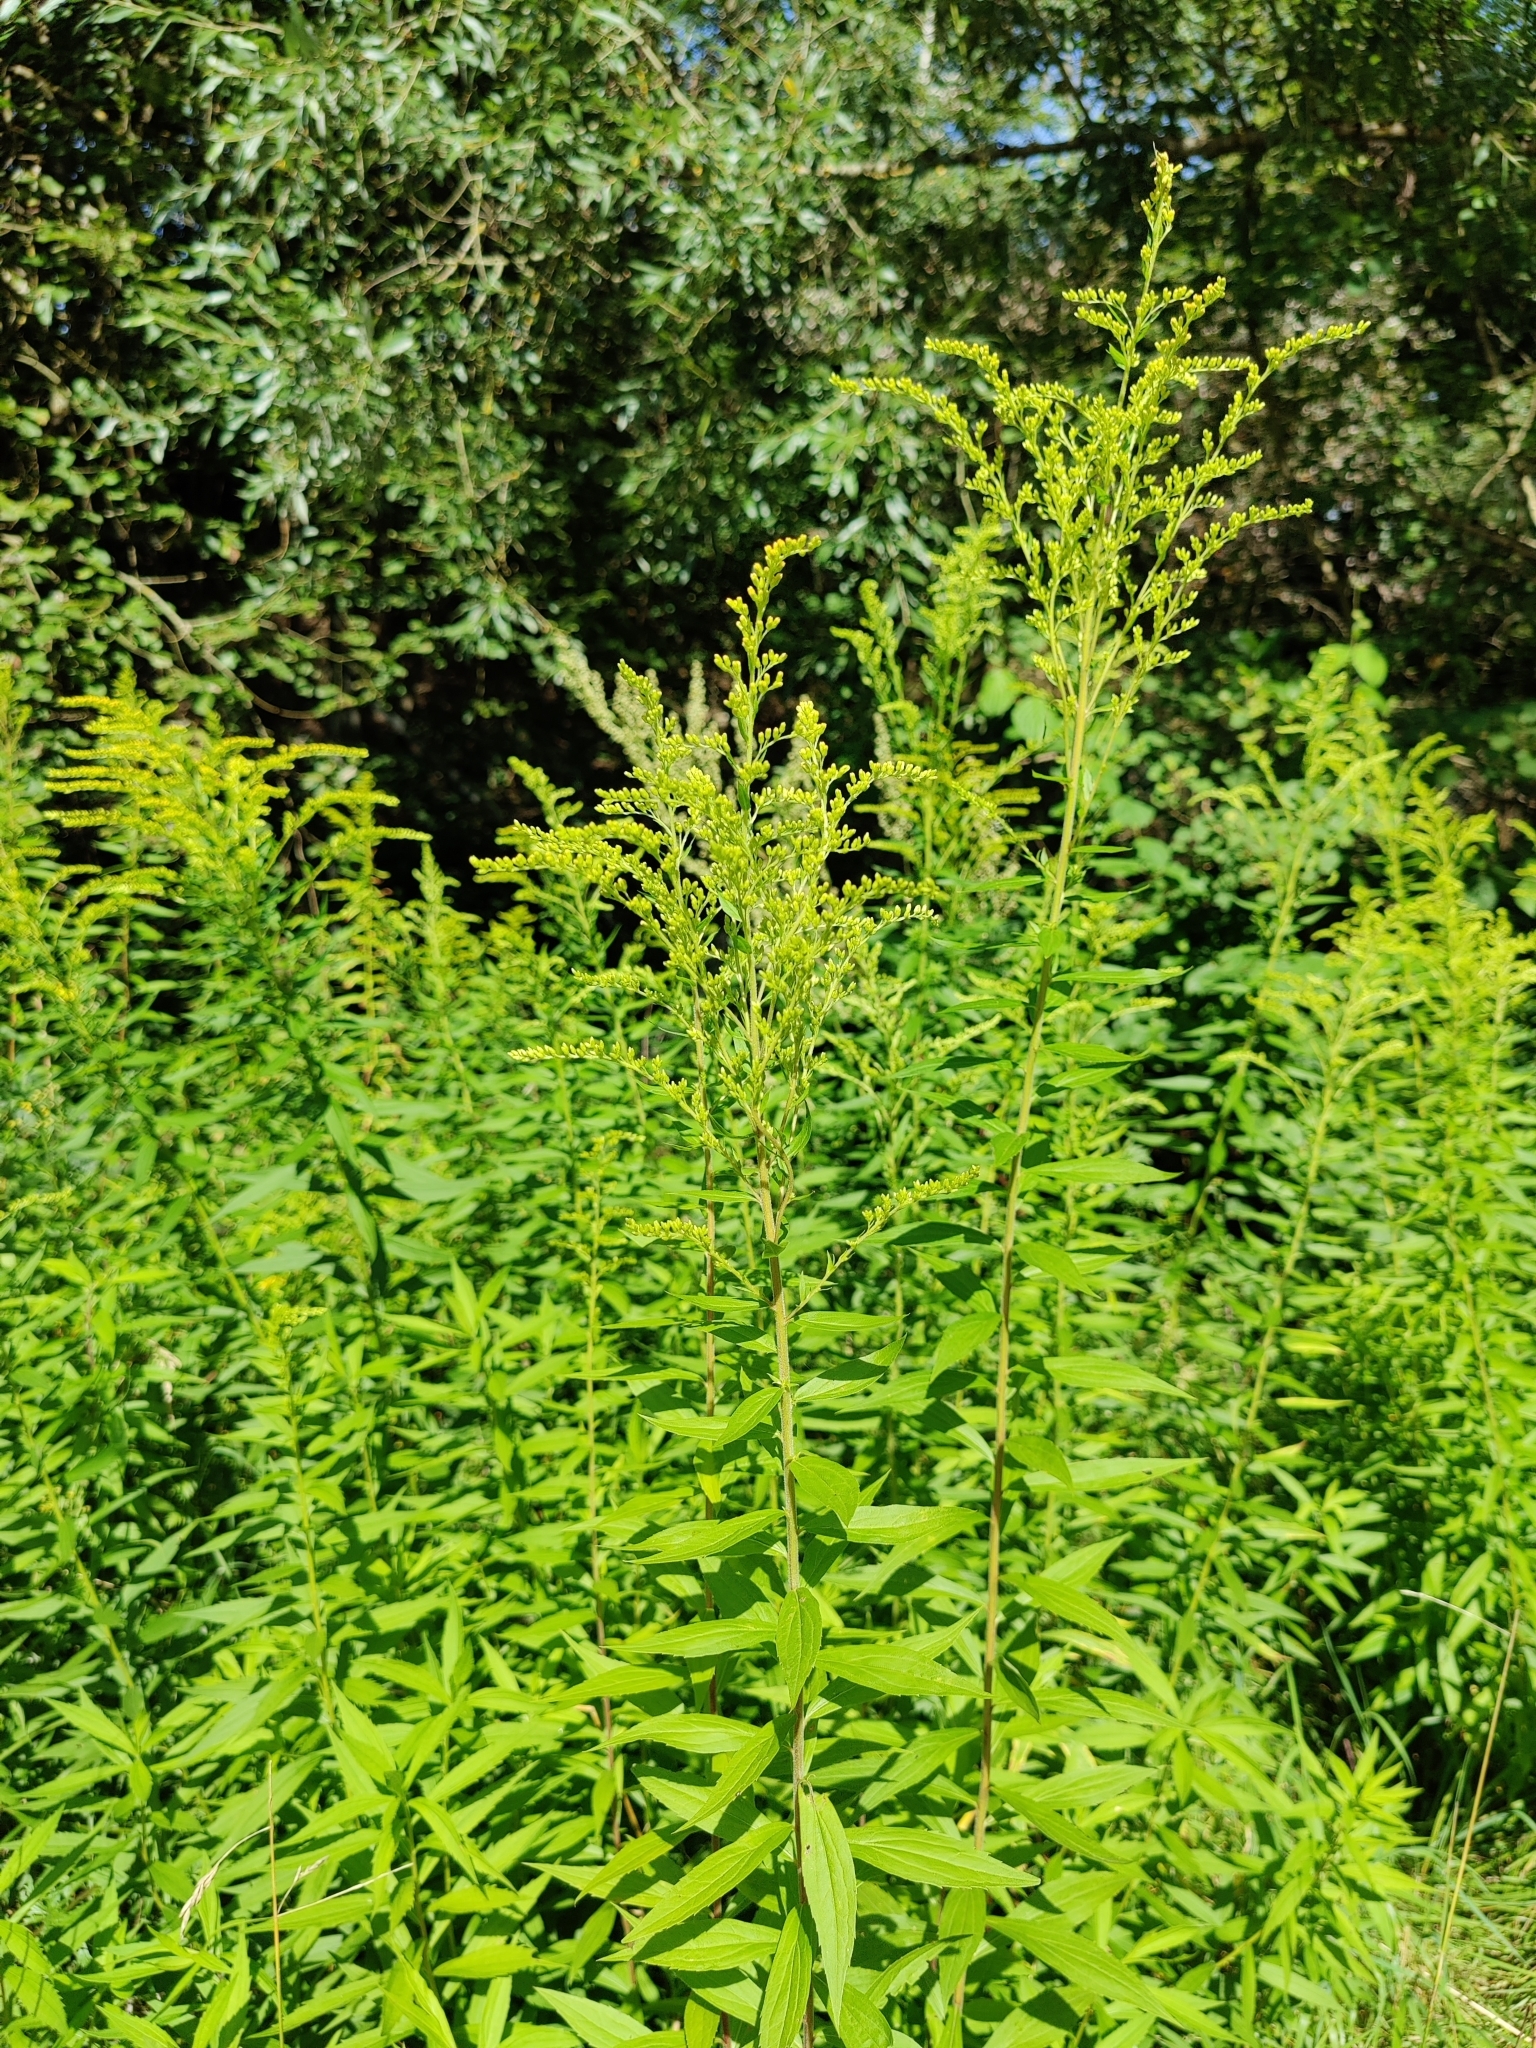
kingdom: Plantae
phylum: Tracheophyta
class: Magnoliopsida
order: Asterales
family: Asteraceae
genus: Solidago
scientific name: Solidago canadensis
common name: Canada goldenrod
